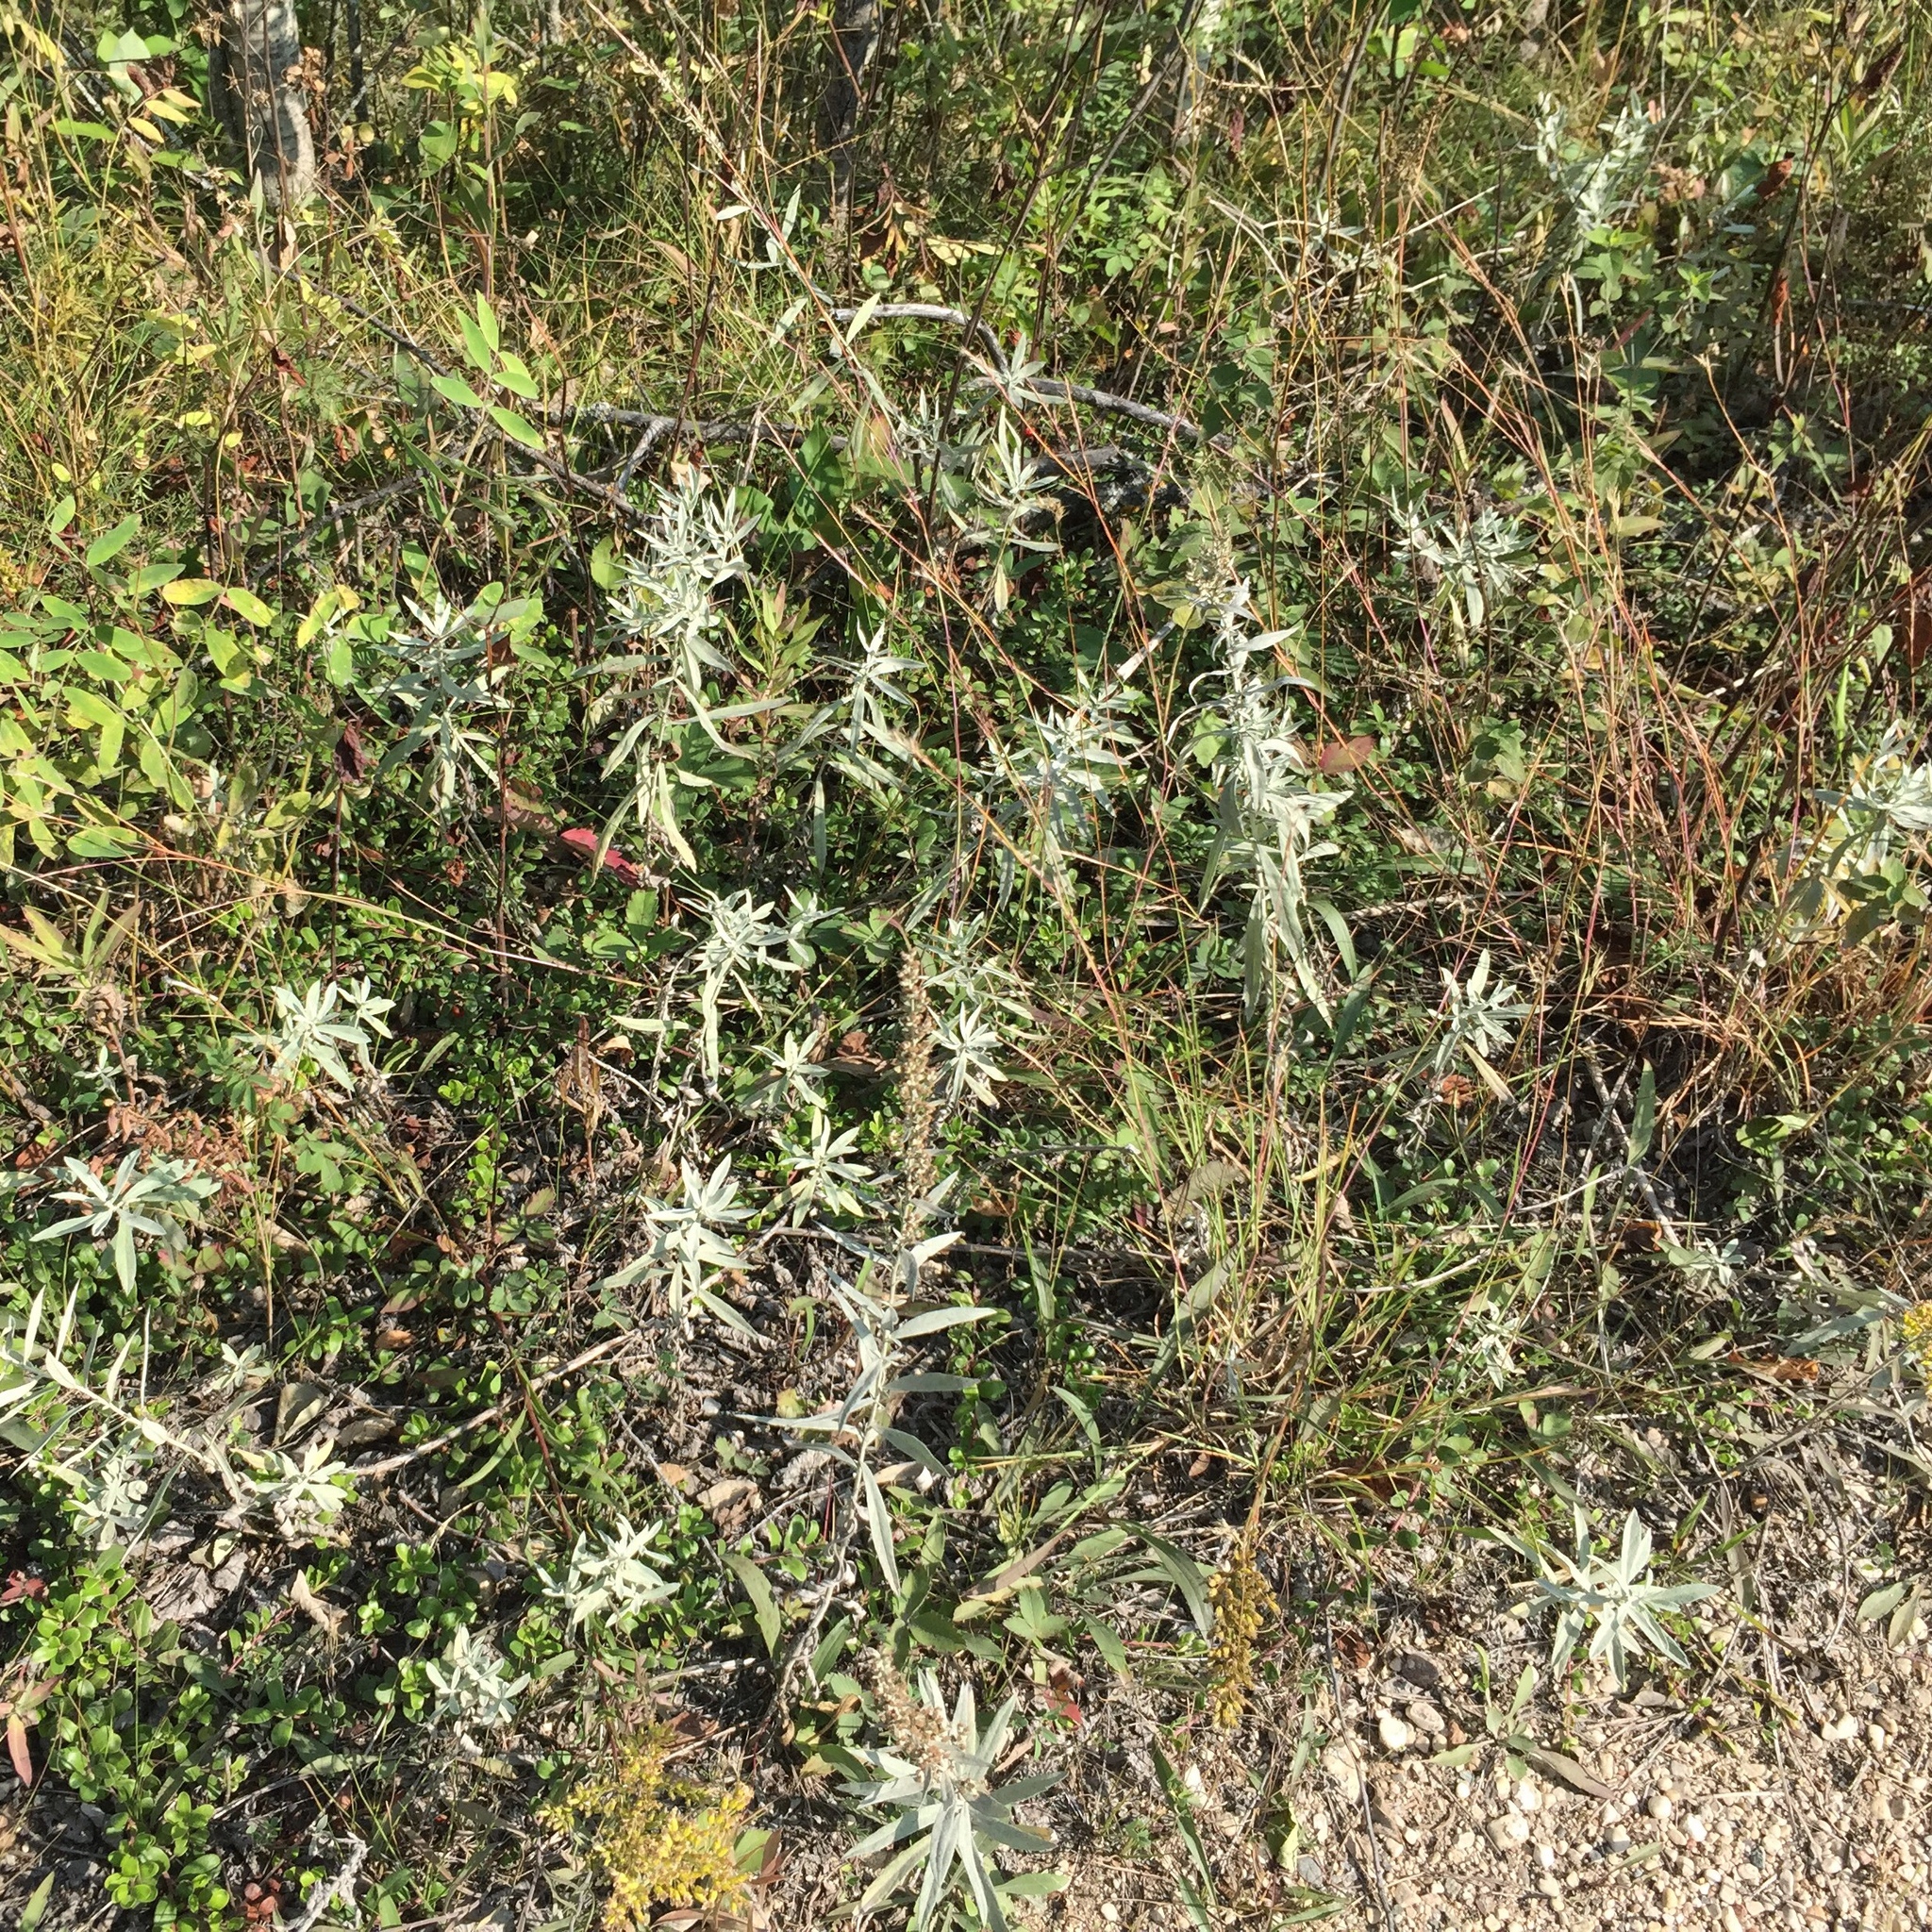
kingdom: Plantae
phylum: Tracheophyta
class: Magnoliopsida
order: Asterales
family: Asteraceae
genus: Artemisia
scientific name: Artemisia ludoviciana
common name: Western mugwort
